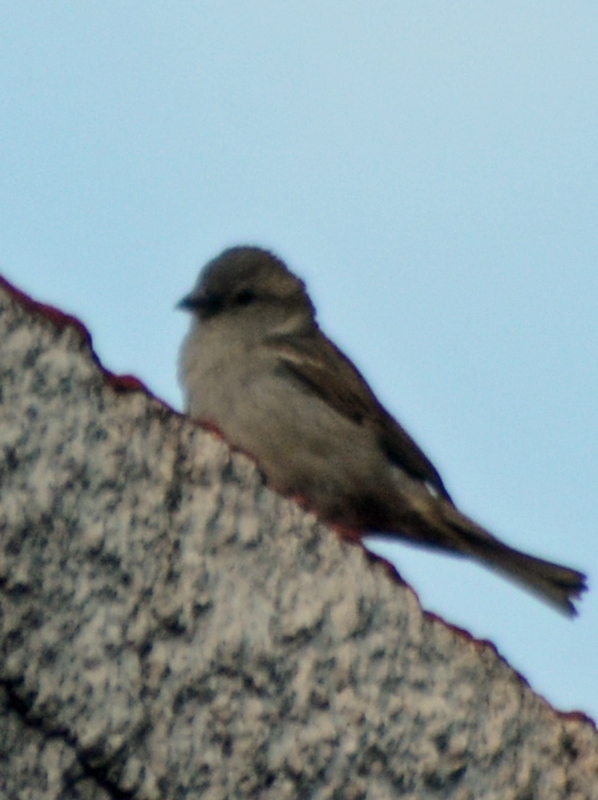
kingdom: Animalia
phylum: Chordata
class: Aves
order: Passeriformes
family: Passeridae
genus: Passer
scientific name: Passer domesticus
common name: House sparrow
